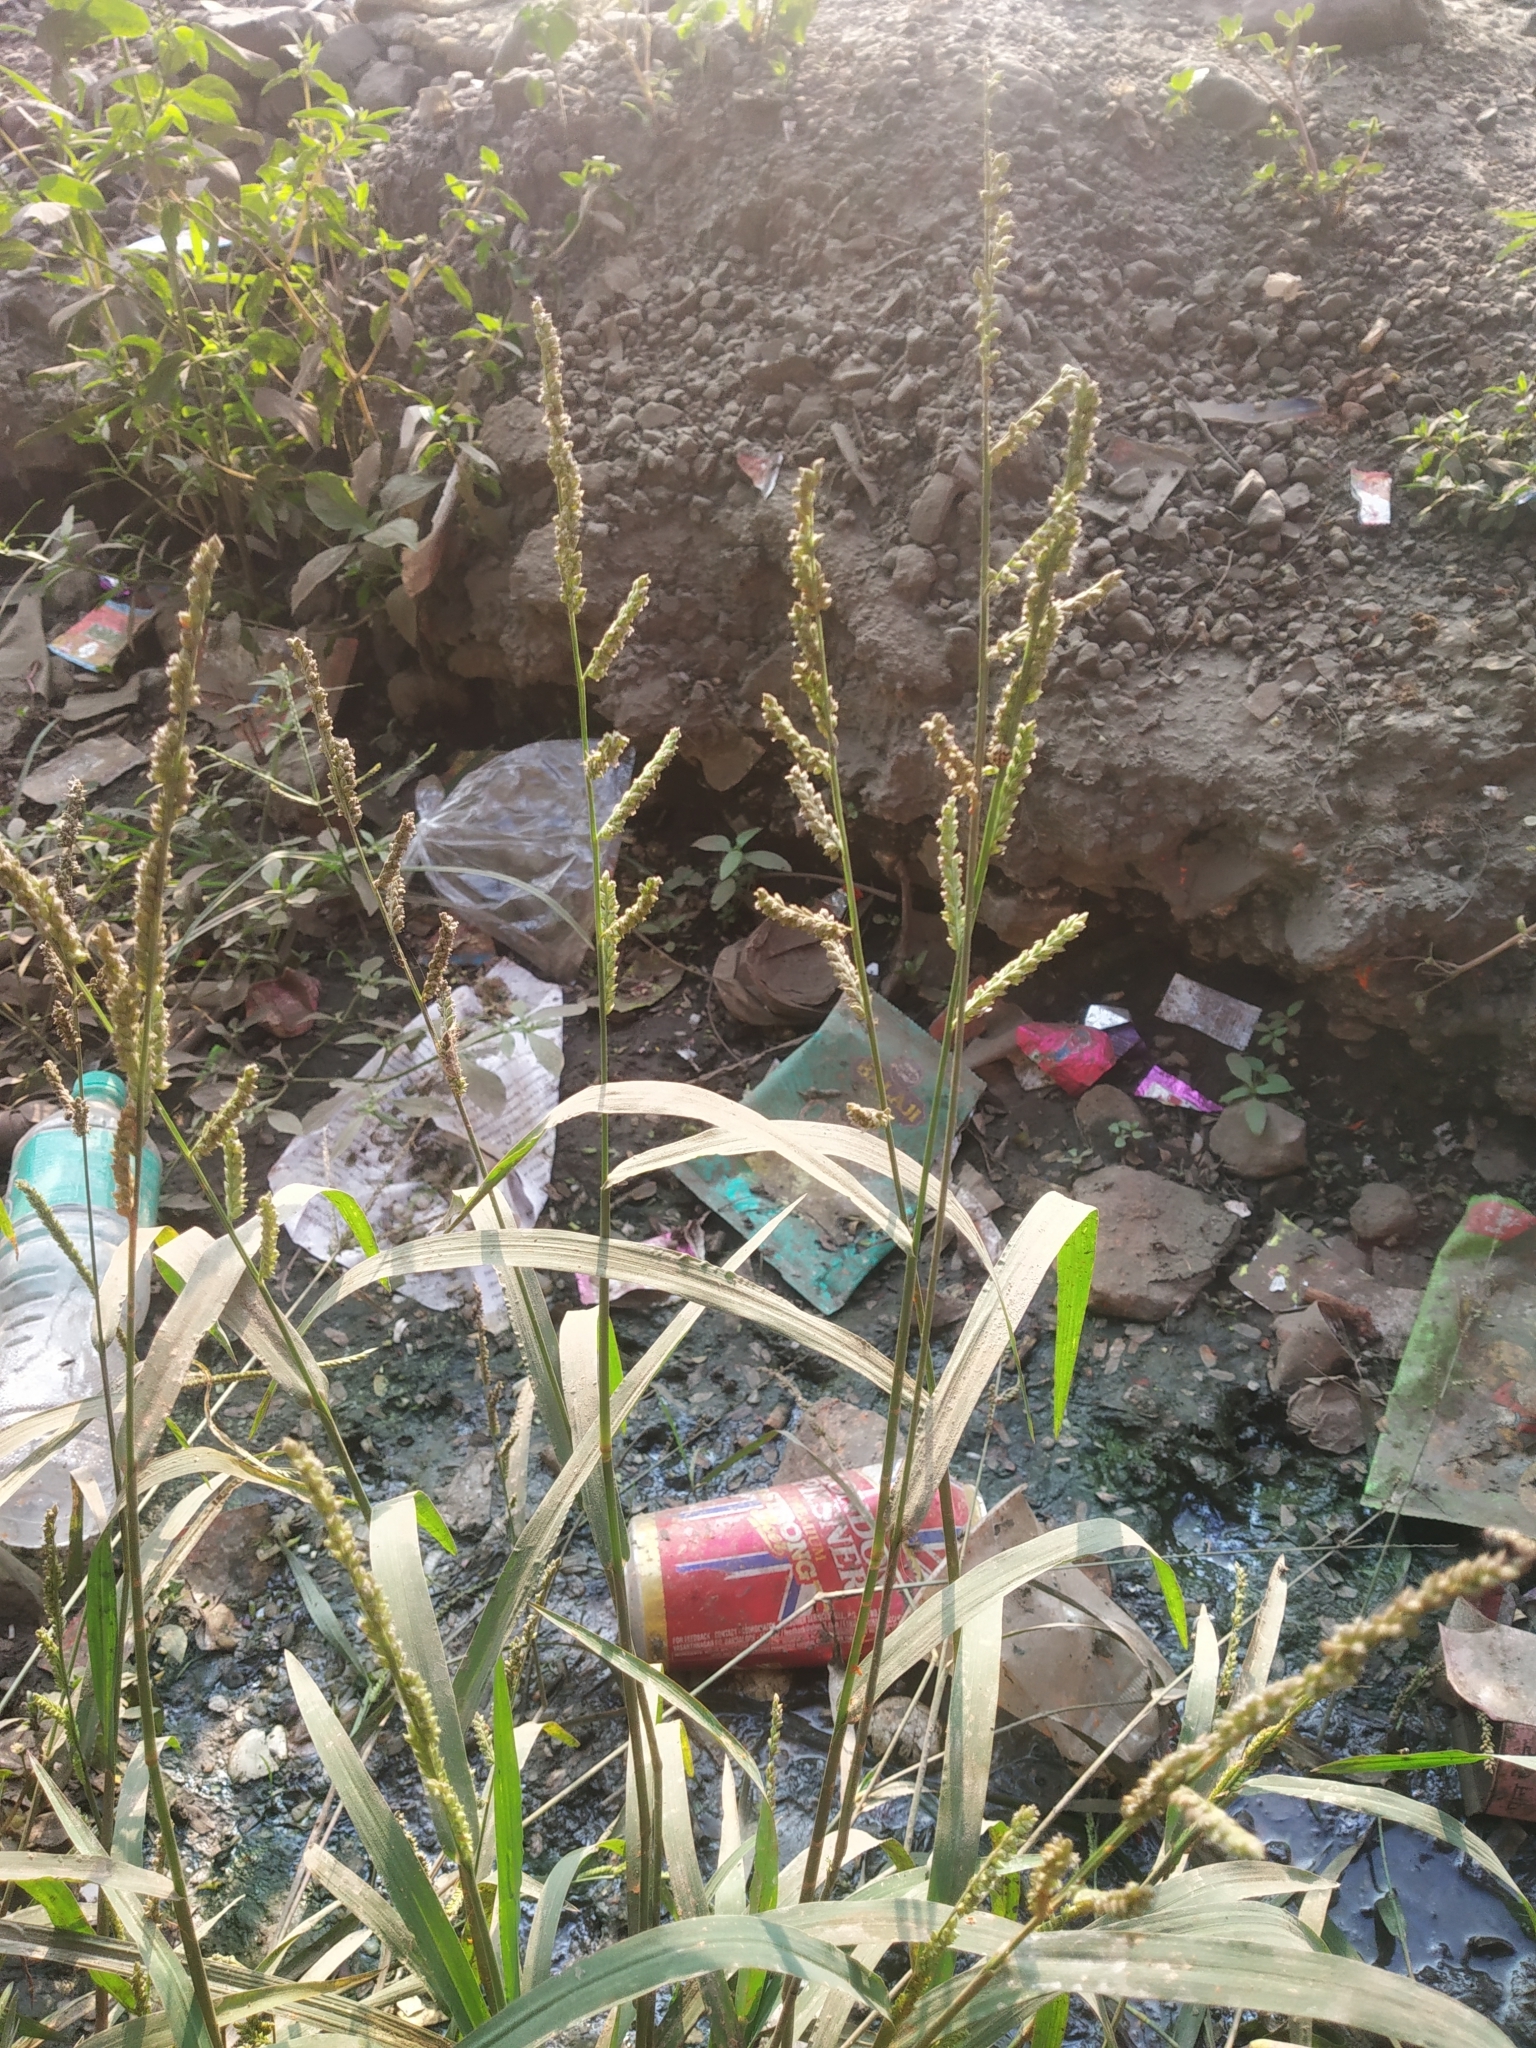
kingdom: Plantae
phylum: Tracheophyta
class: Liliopsida
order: Poales
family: Poaceae
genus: Echinochloa
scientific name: Echinochloa colonum
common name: Jungle rice
